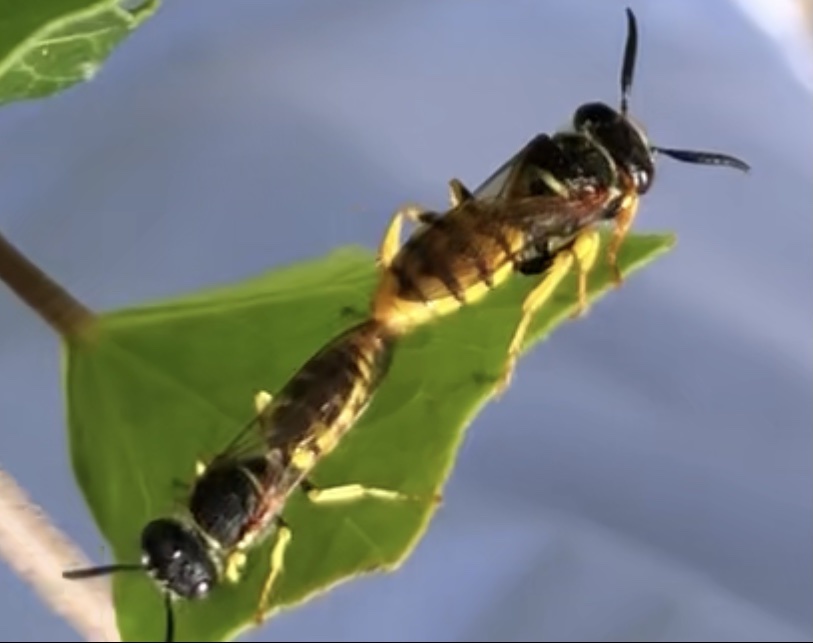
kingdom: Animalia
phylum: Arthropoda
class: Insecta
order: Hymenoptera
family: Crabronidae
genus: Philanthus
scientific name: Philanthus triangulum
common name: Bee wolf
